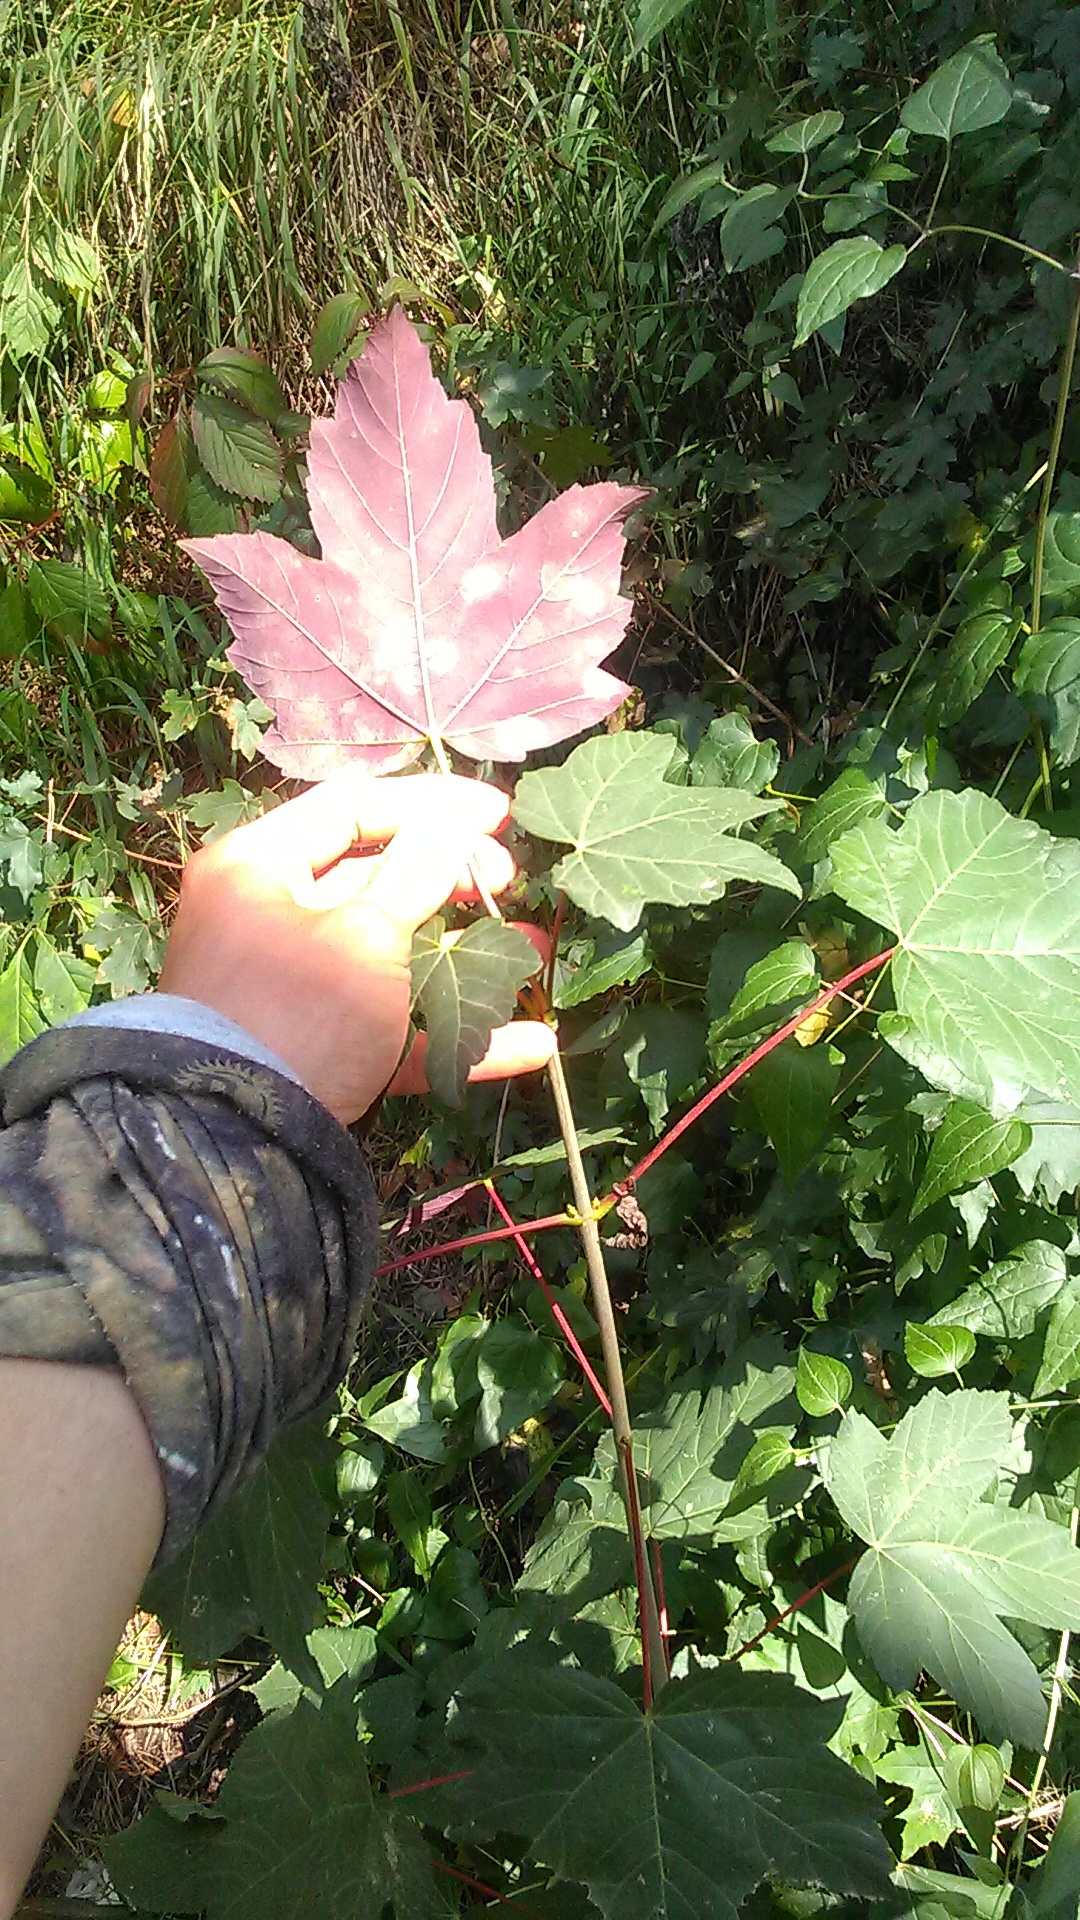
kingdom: Plantae
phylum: Tracheophyta
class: Magnoliopsida
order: Sapindales
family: Sapindaceae
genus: Acer
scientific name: Acer pseudoplatanus
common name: Sycamore
